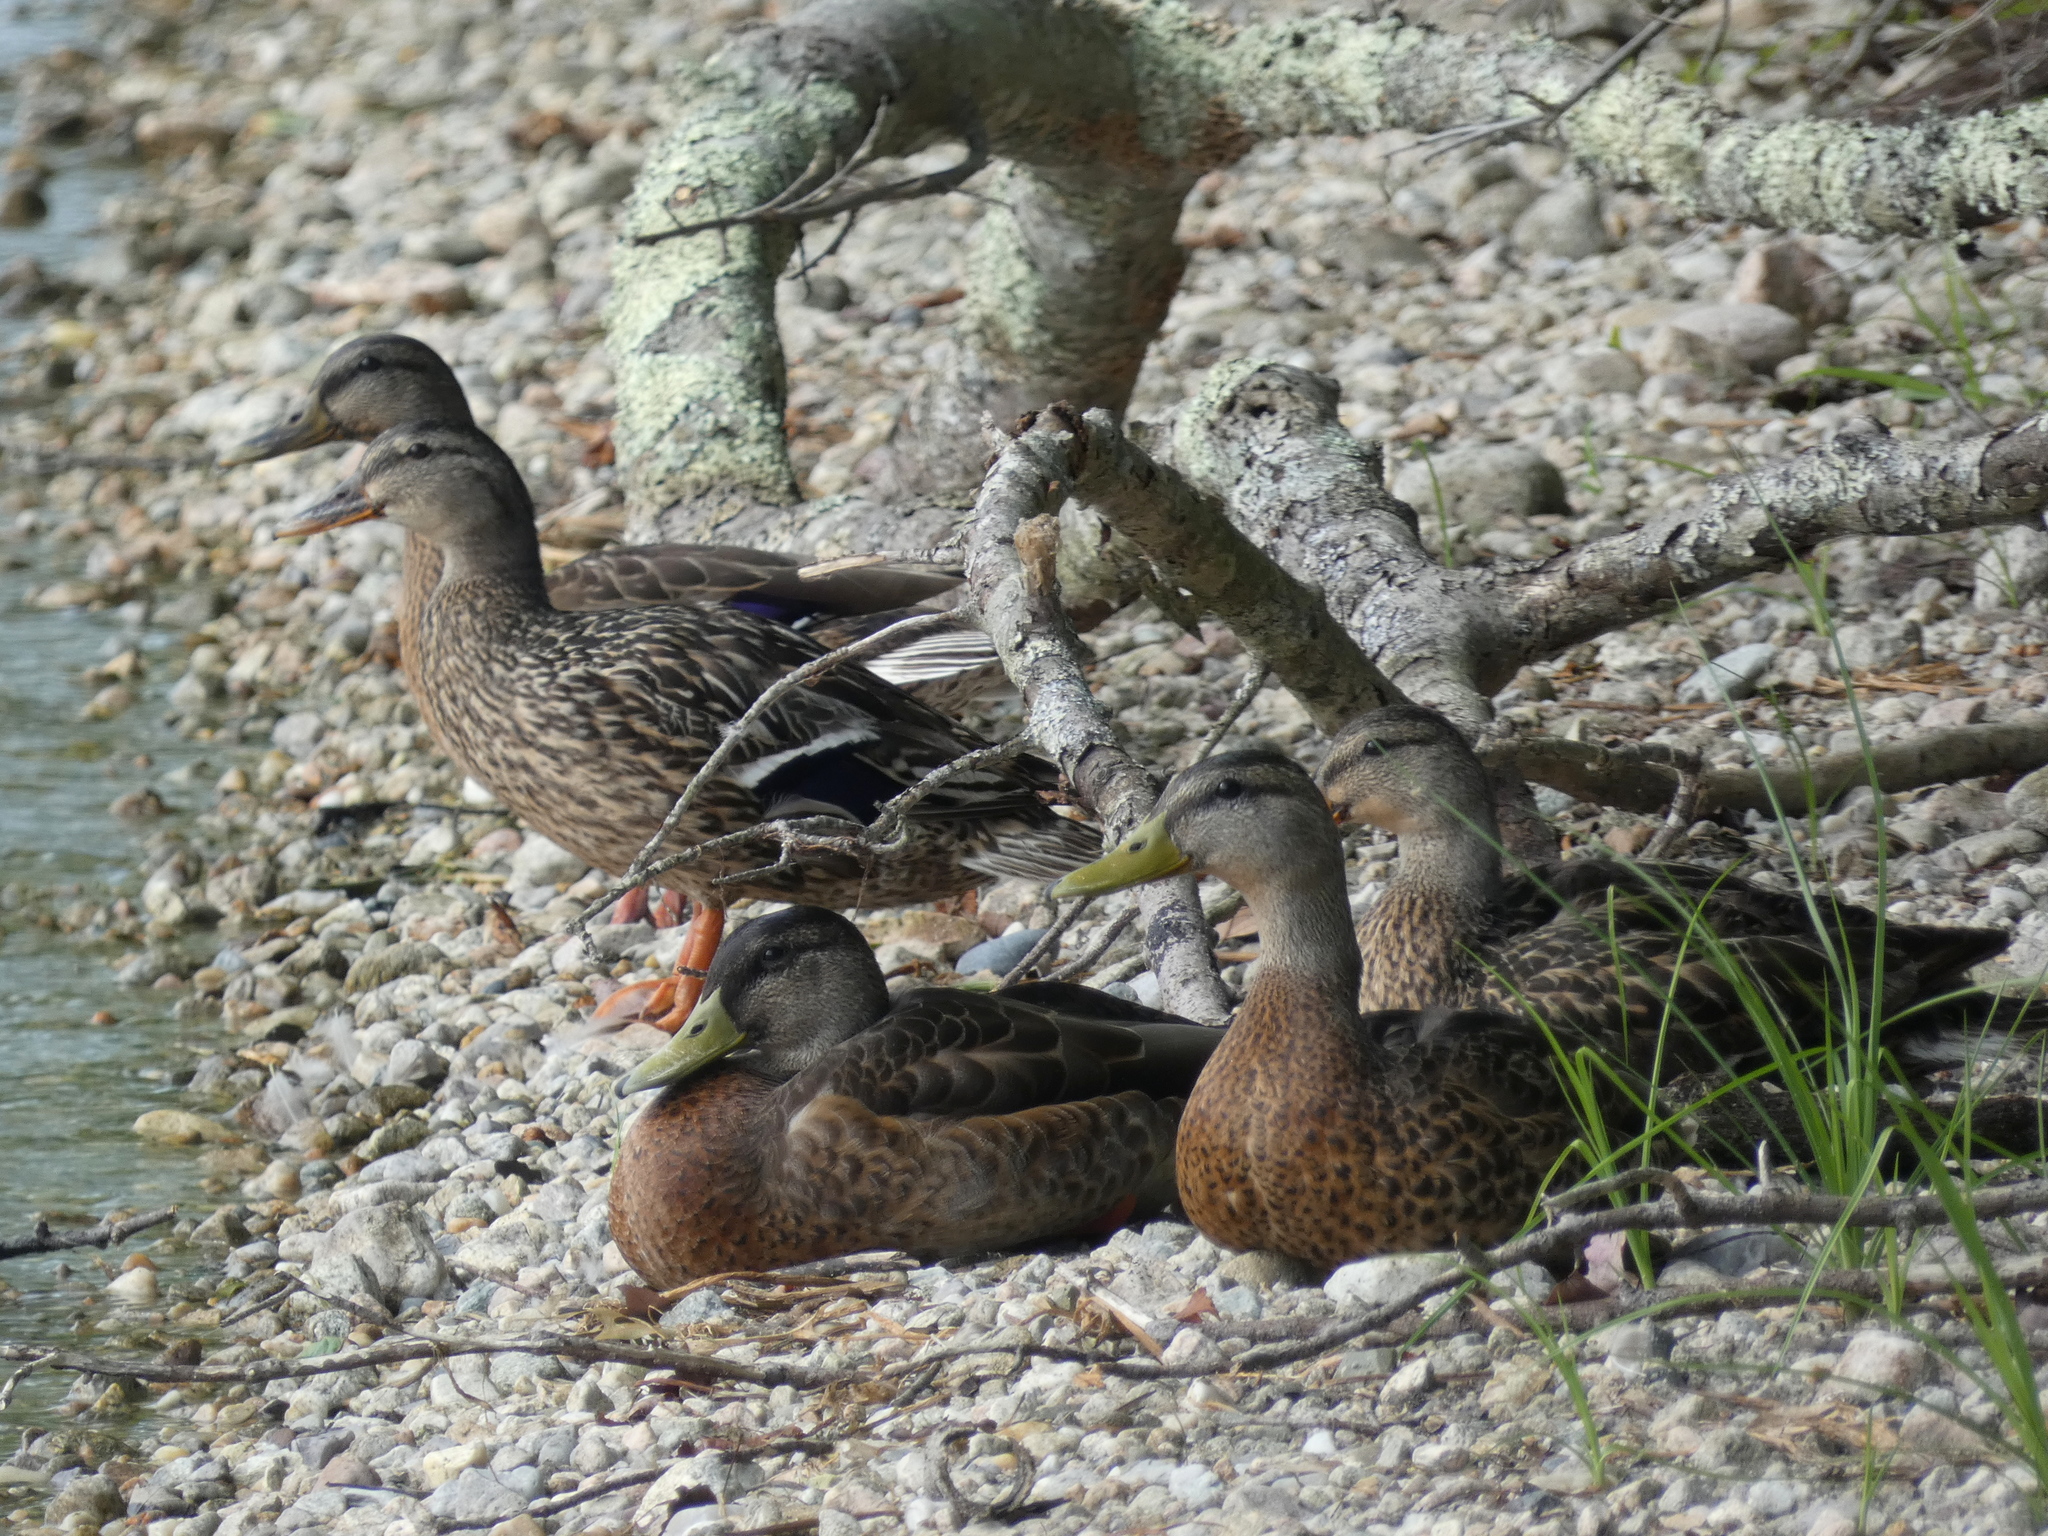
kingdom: Animalia
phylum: Chordata
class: Aves
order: Anseriformes
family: Anatidae
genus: Anas
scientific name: Anas platyrhynchos
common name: Mallard
